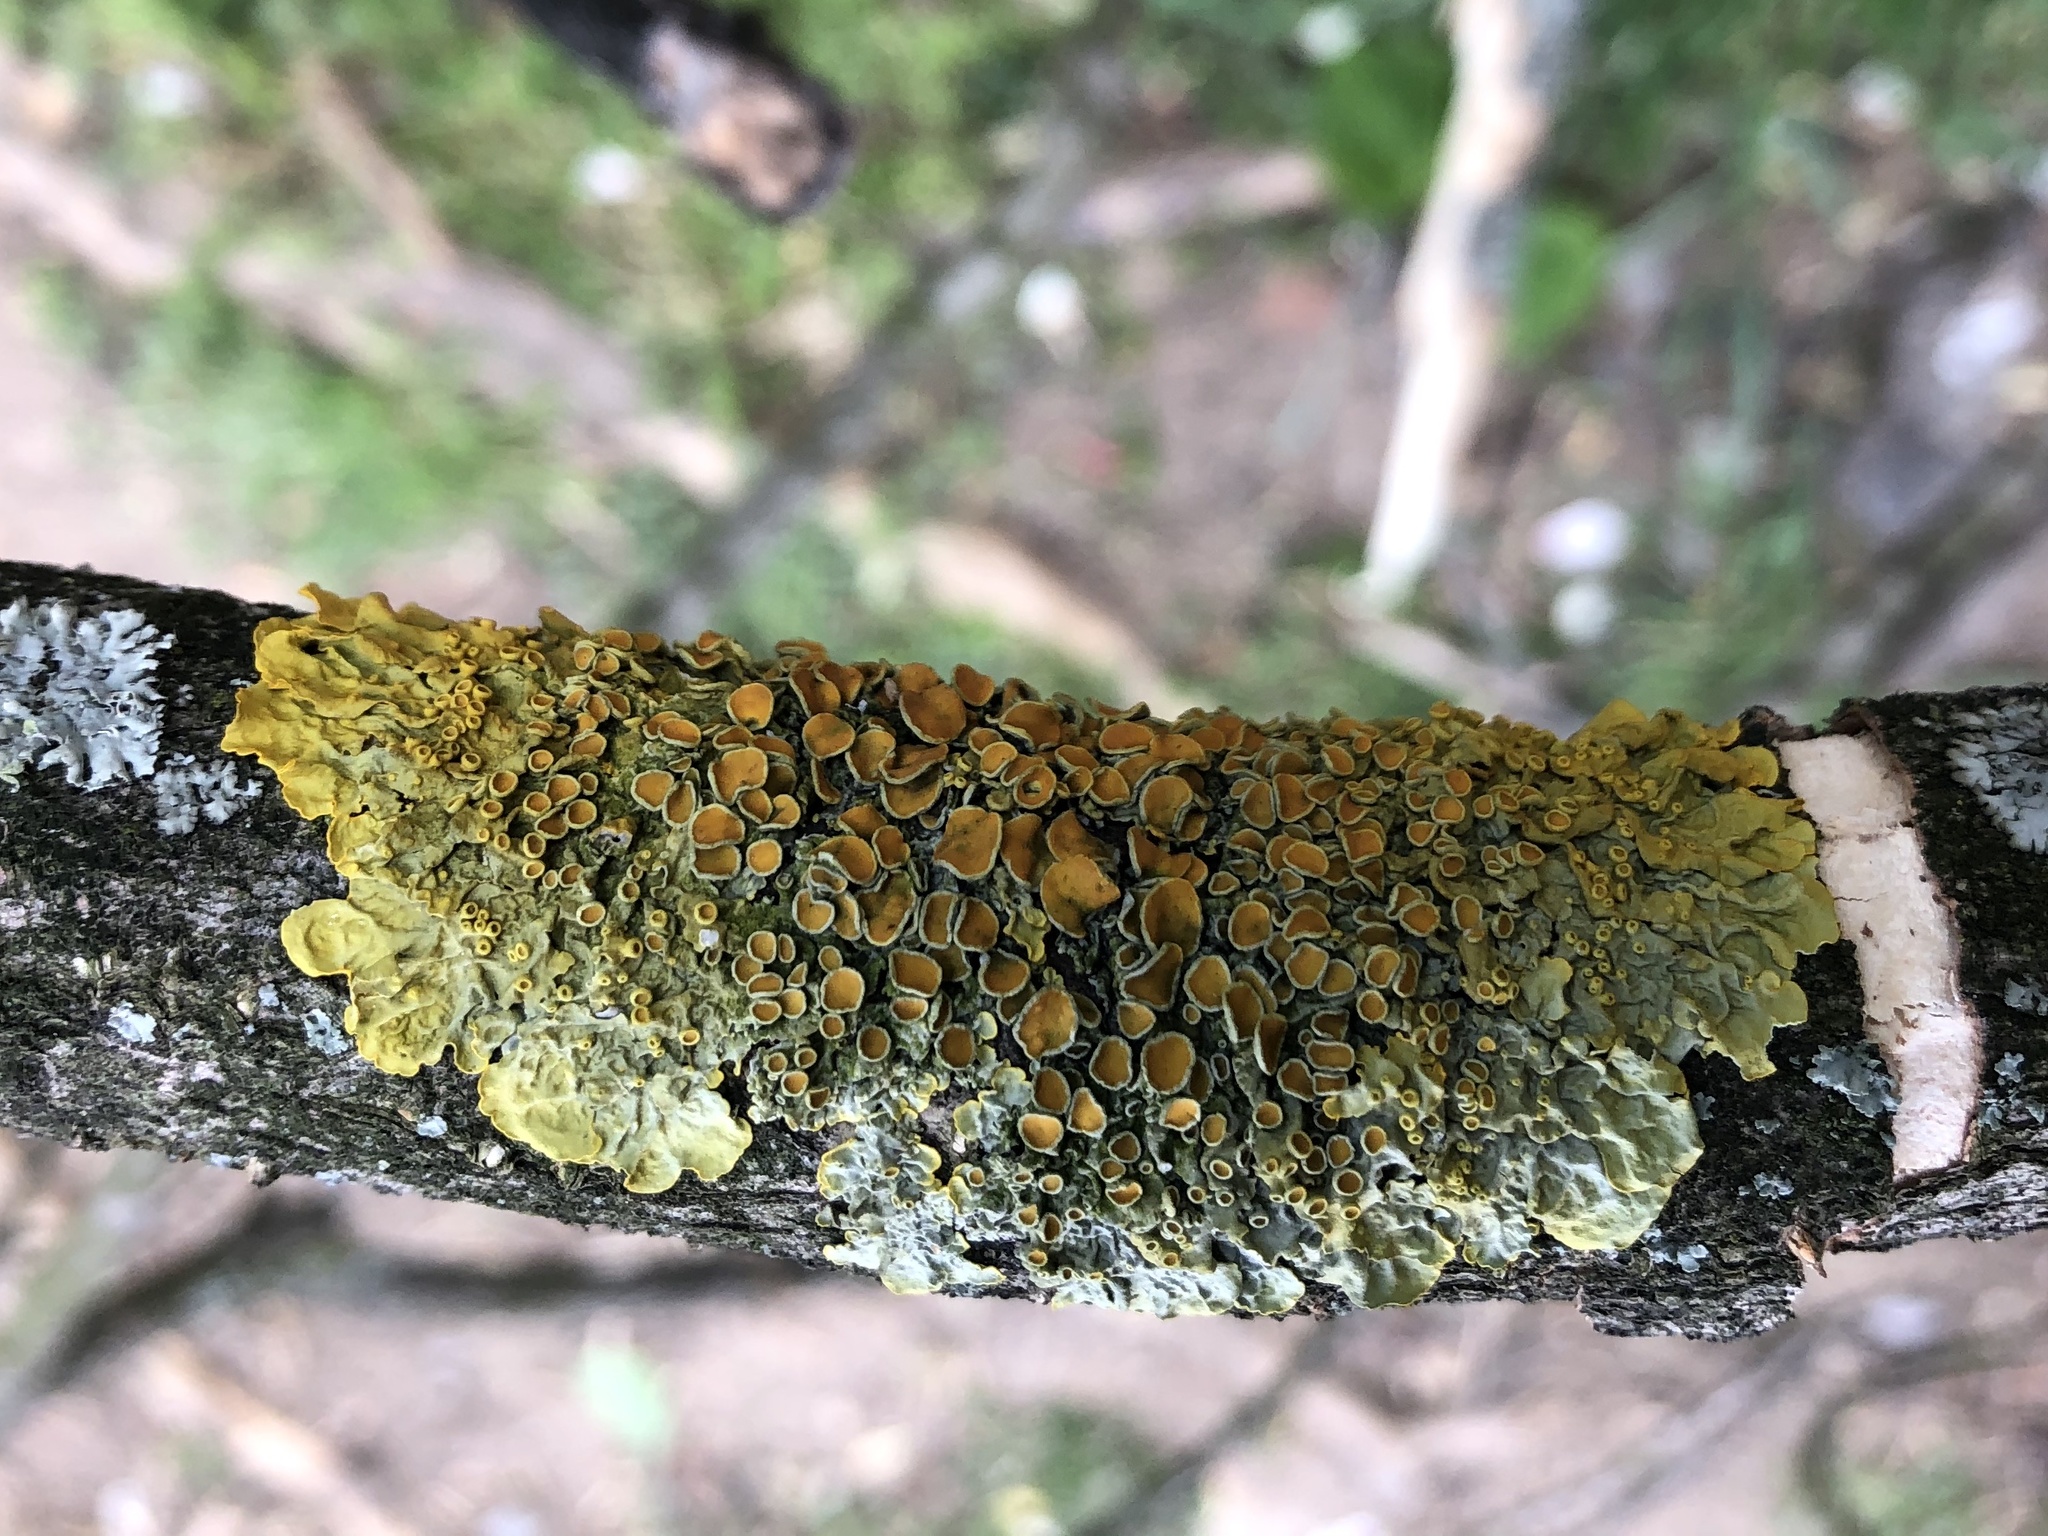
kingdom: Fungi
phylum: Ascomycota
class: Lecanoromycetes
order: Teloschistales
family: Teloschistaceae
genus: Xanthoria
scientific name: Xanthoria parietina
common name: Common orange lichen
